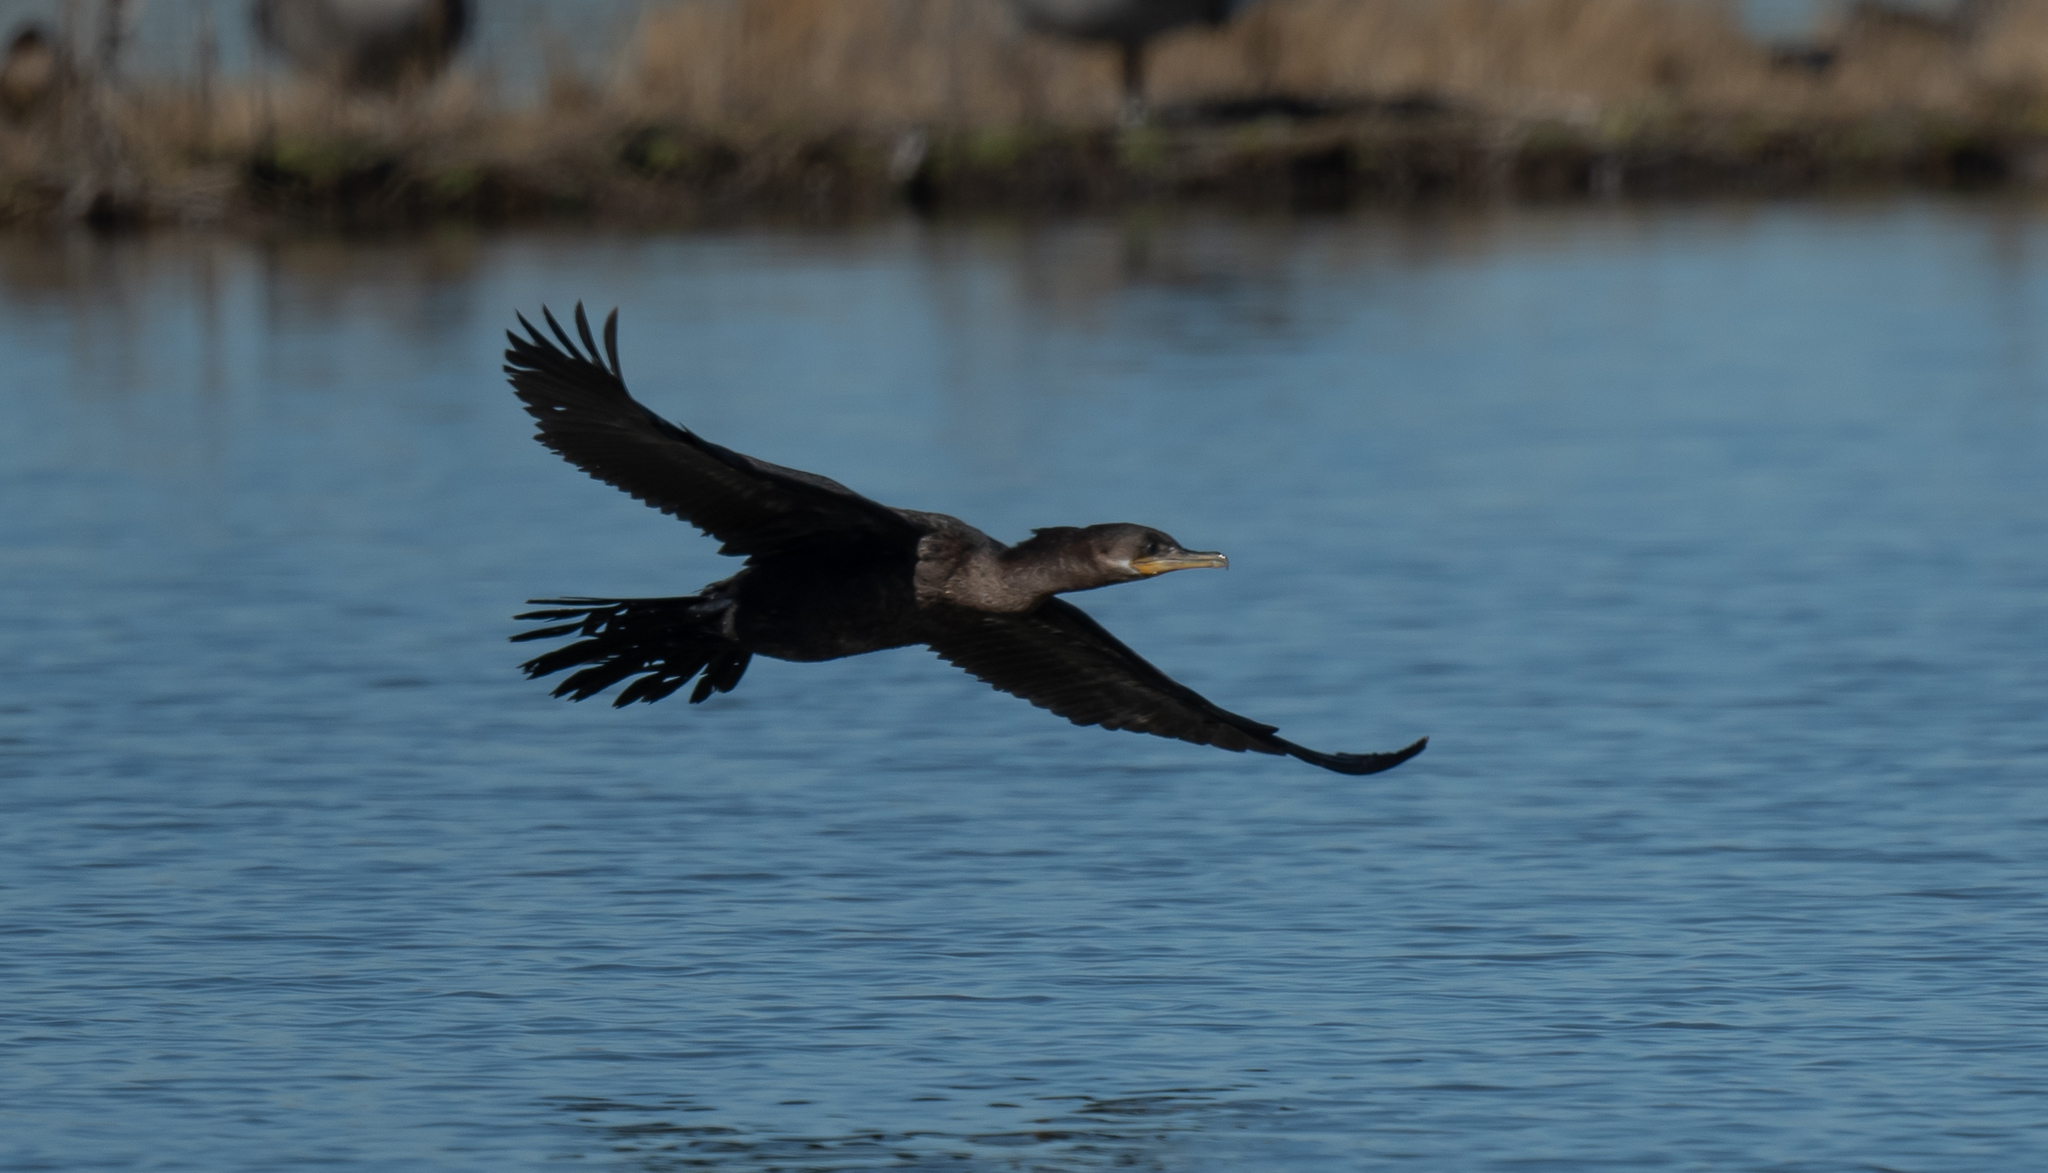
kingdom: Animalia
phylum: Chordata
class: Aves
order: Suliformes
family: Phalacrocoracidae
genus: Phalacrocorax
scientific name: Phalacrocorax brasilianus
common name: Neotropic cormorant
